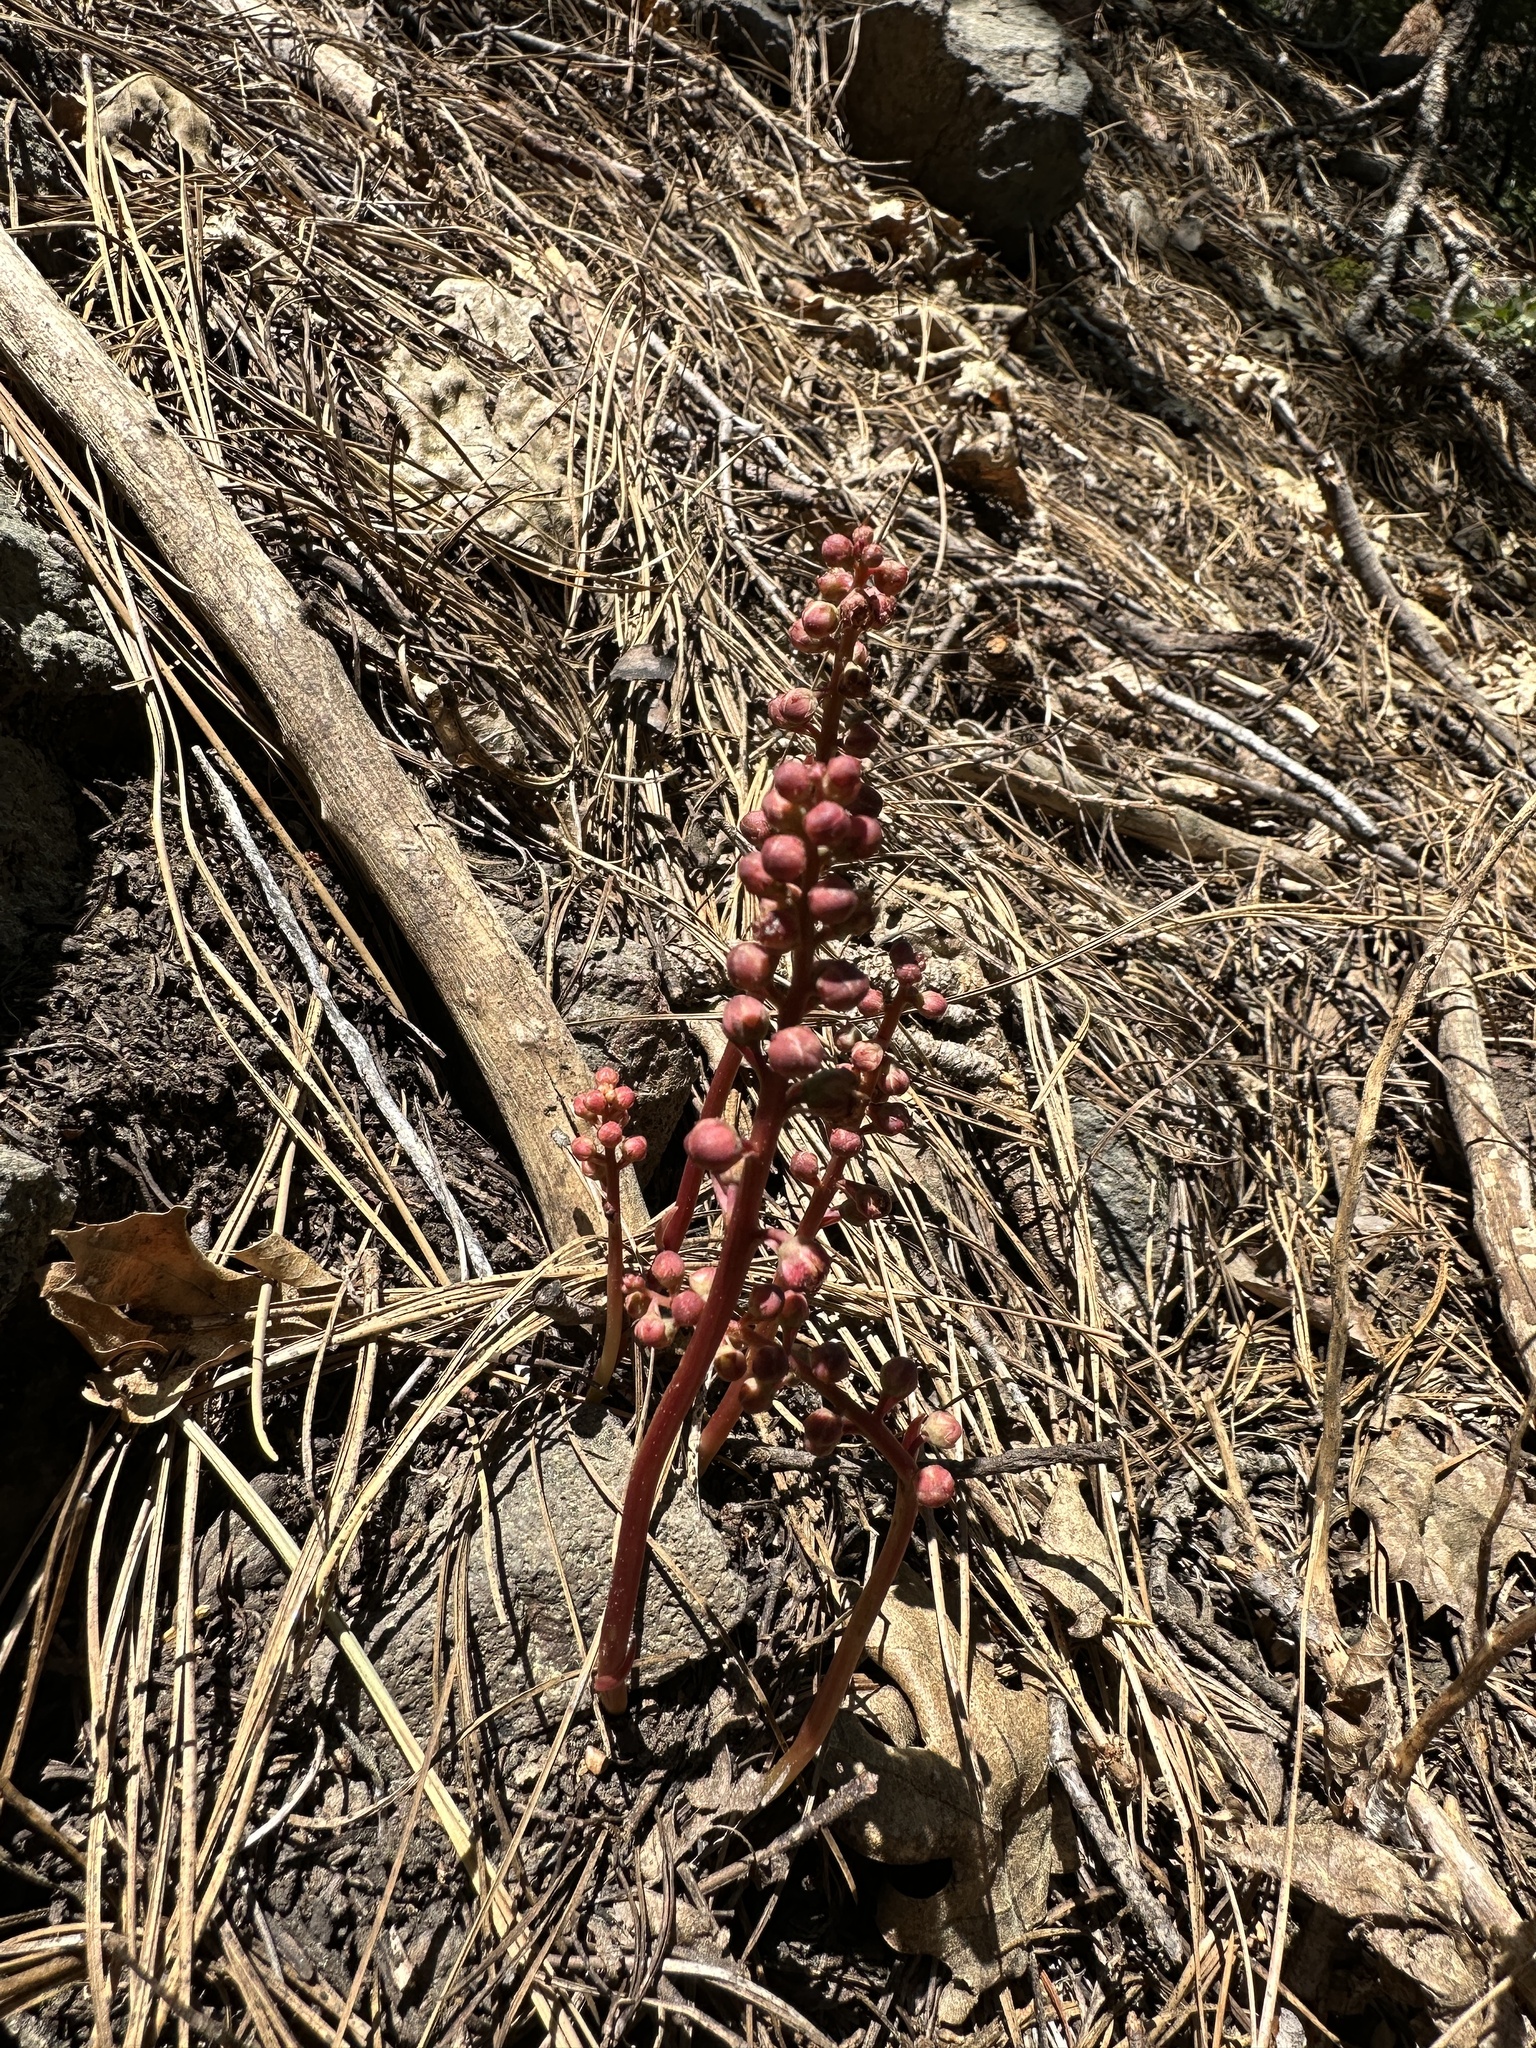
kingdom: Plantae
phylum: Tracheophyta
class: Magnoliopsida
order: Ericales
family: Ericaceae
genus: Pyrola
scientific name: Pyrola aphylla
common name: Leafless wintergreen
